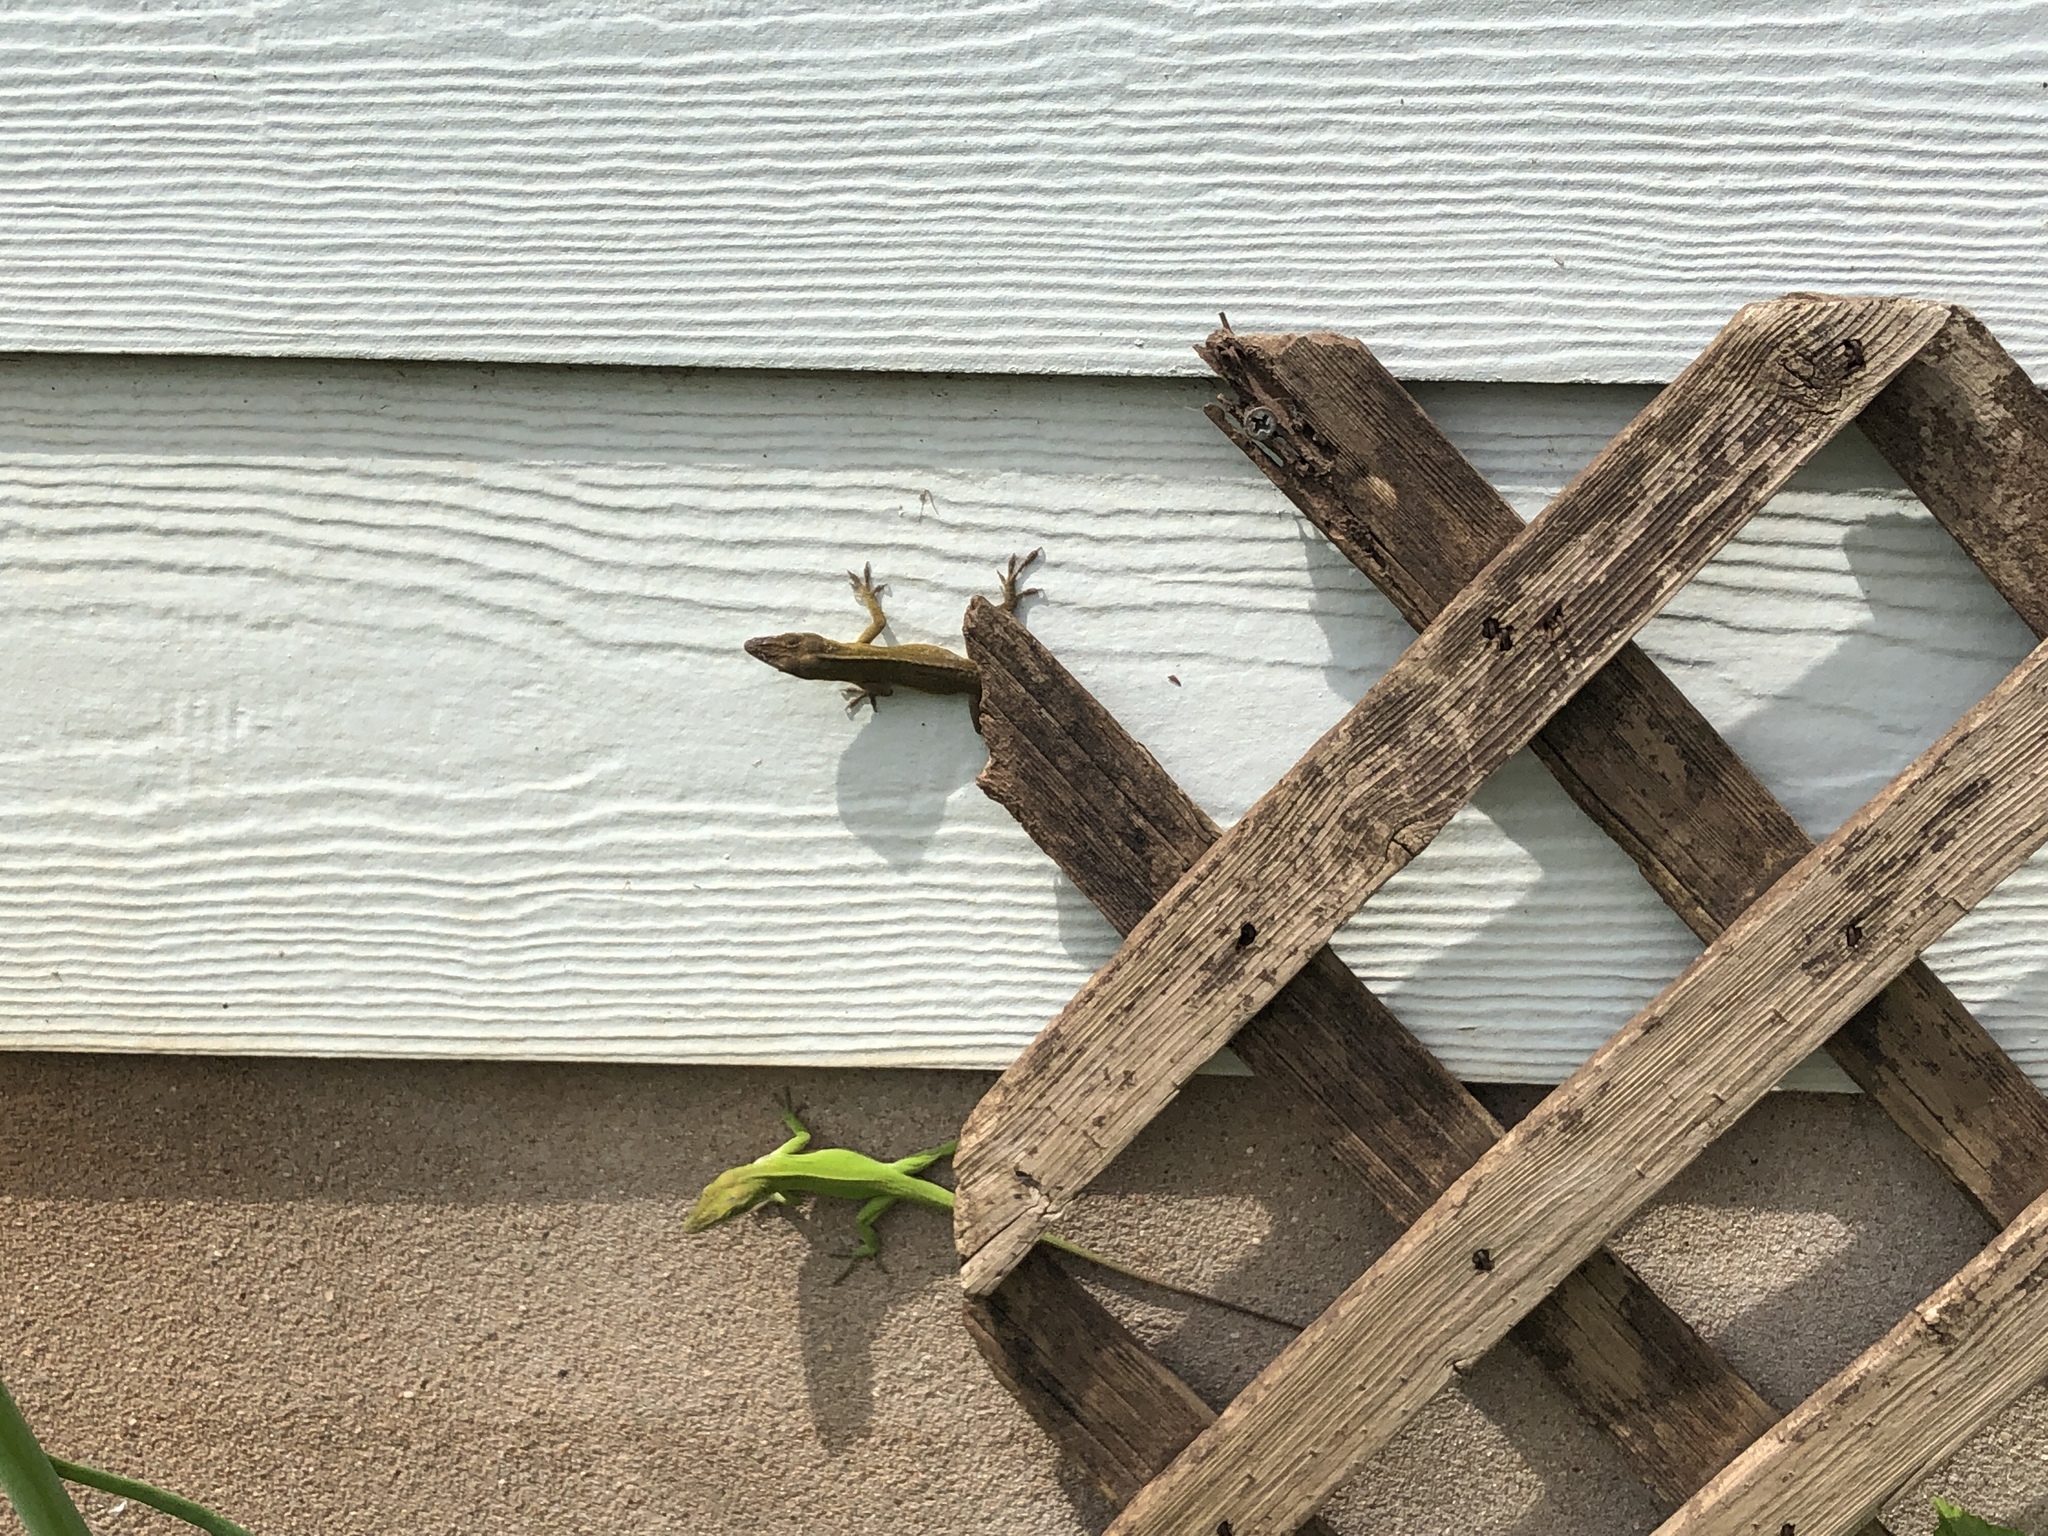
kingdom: Animalia
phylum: Chordata
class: Squamata
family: Dactyloidae
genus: Anolis
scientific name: Anolis carolinensis
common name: Green anole
